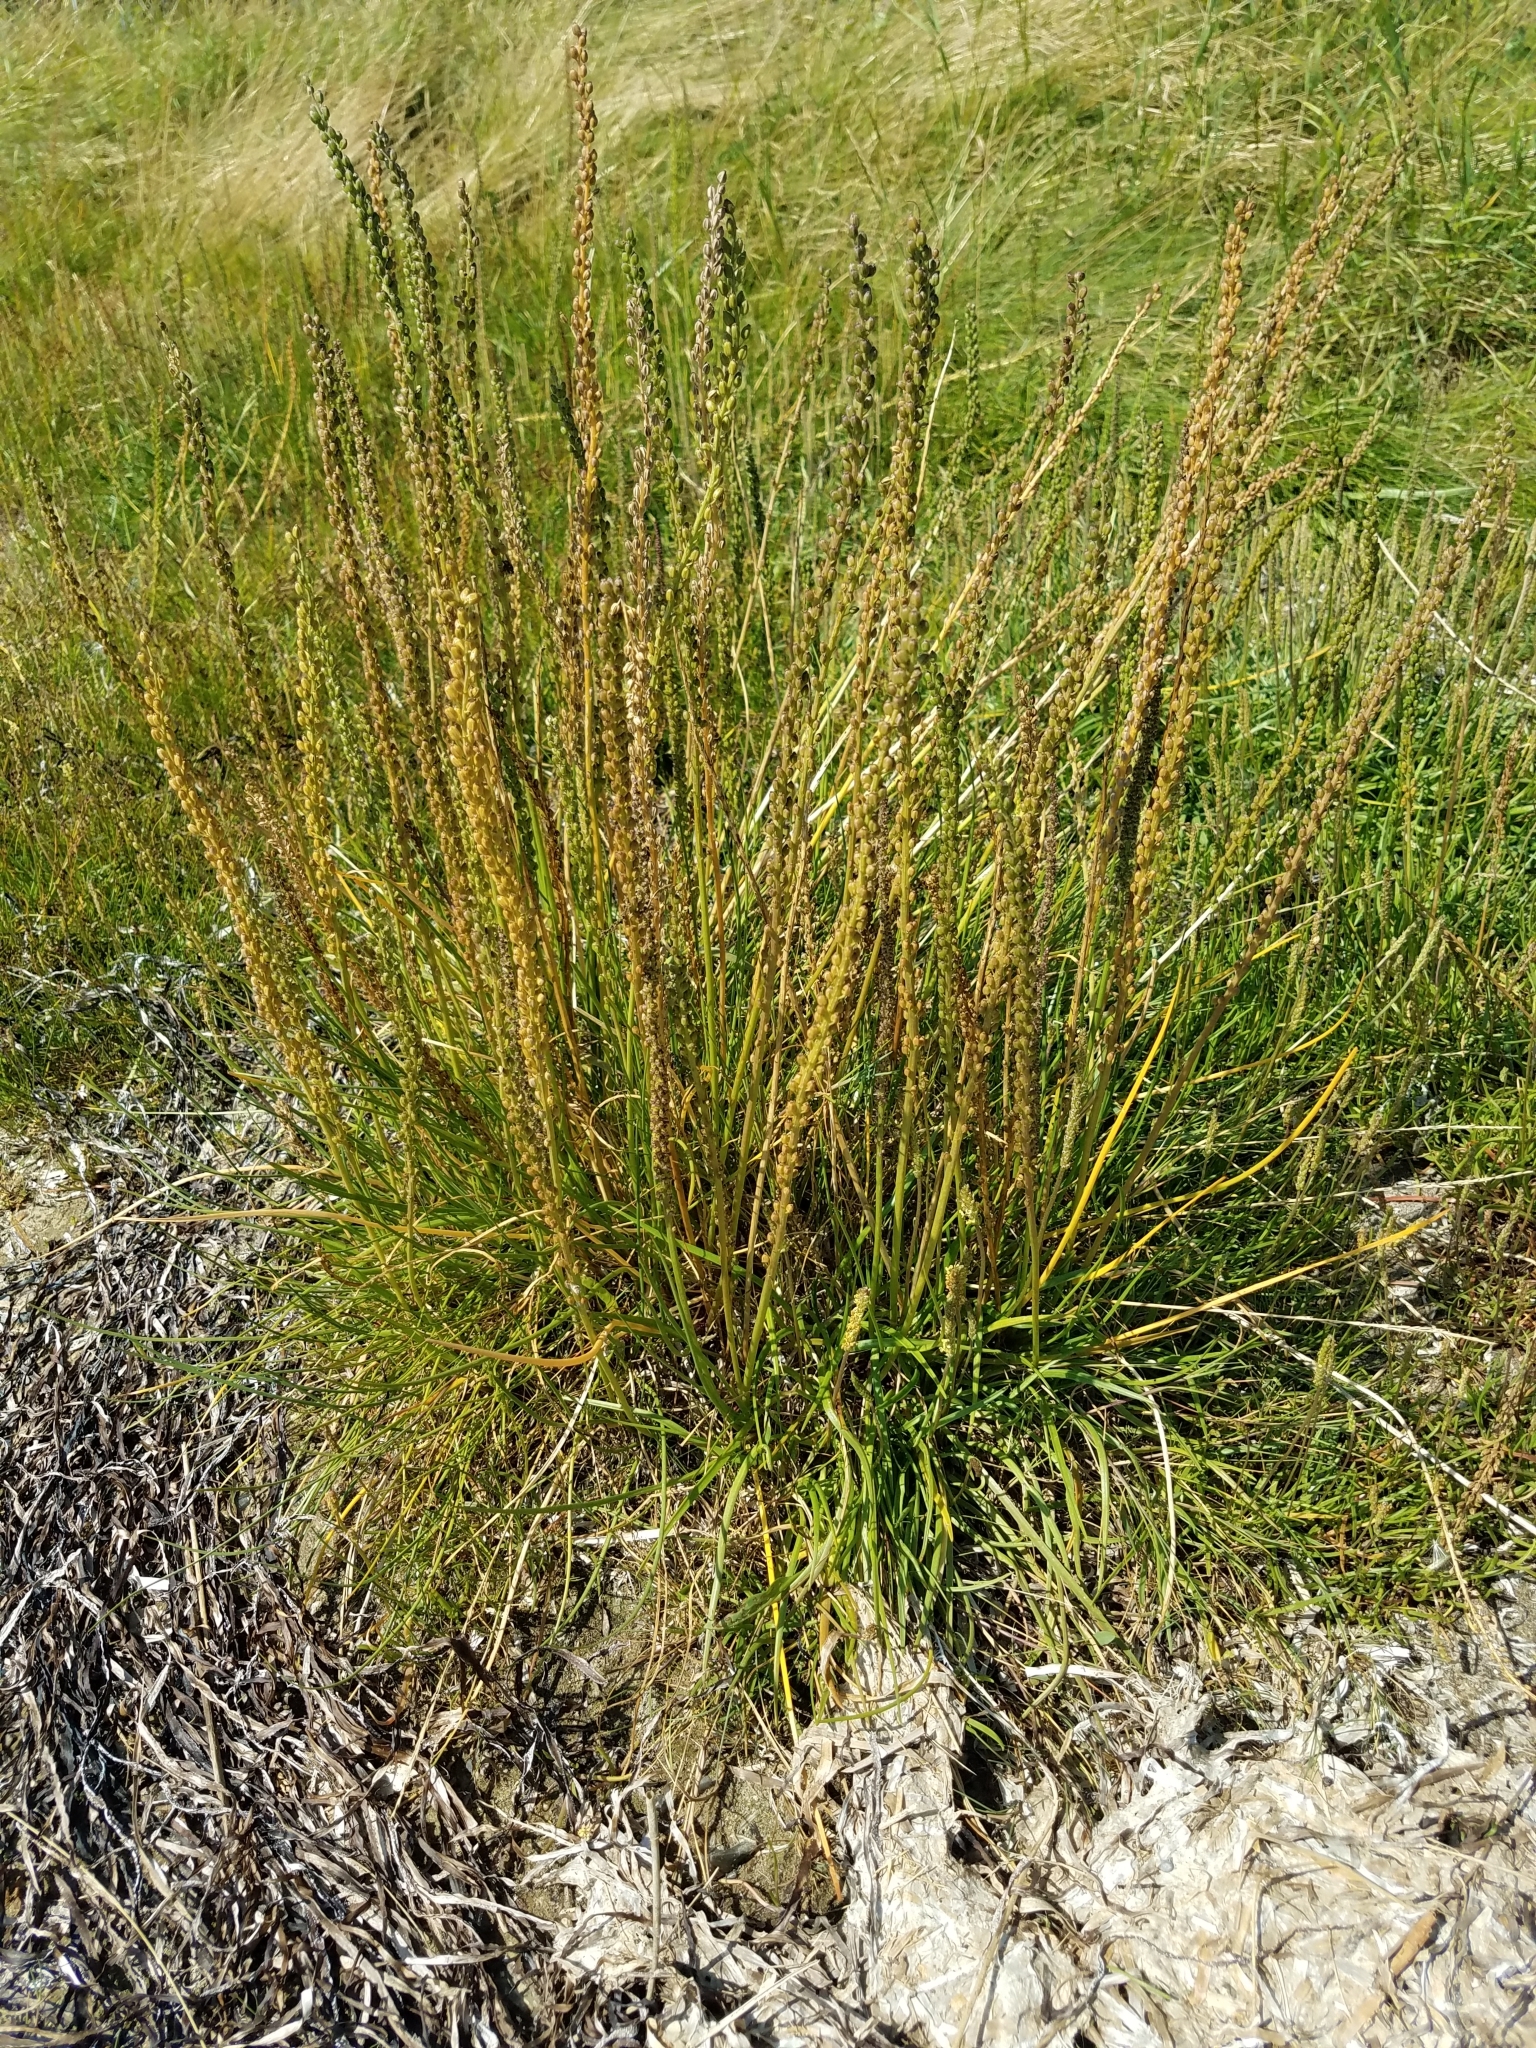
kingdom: Plantae
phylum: Tracheophyta
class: Liliopsida
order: Alismatales
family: Juncaginaceae
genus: Triglochin
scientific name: Triglochin maritima
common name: Sea arrowgrass
